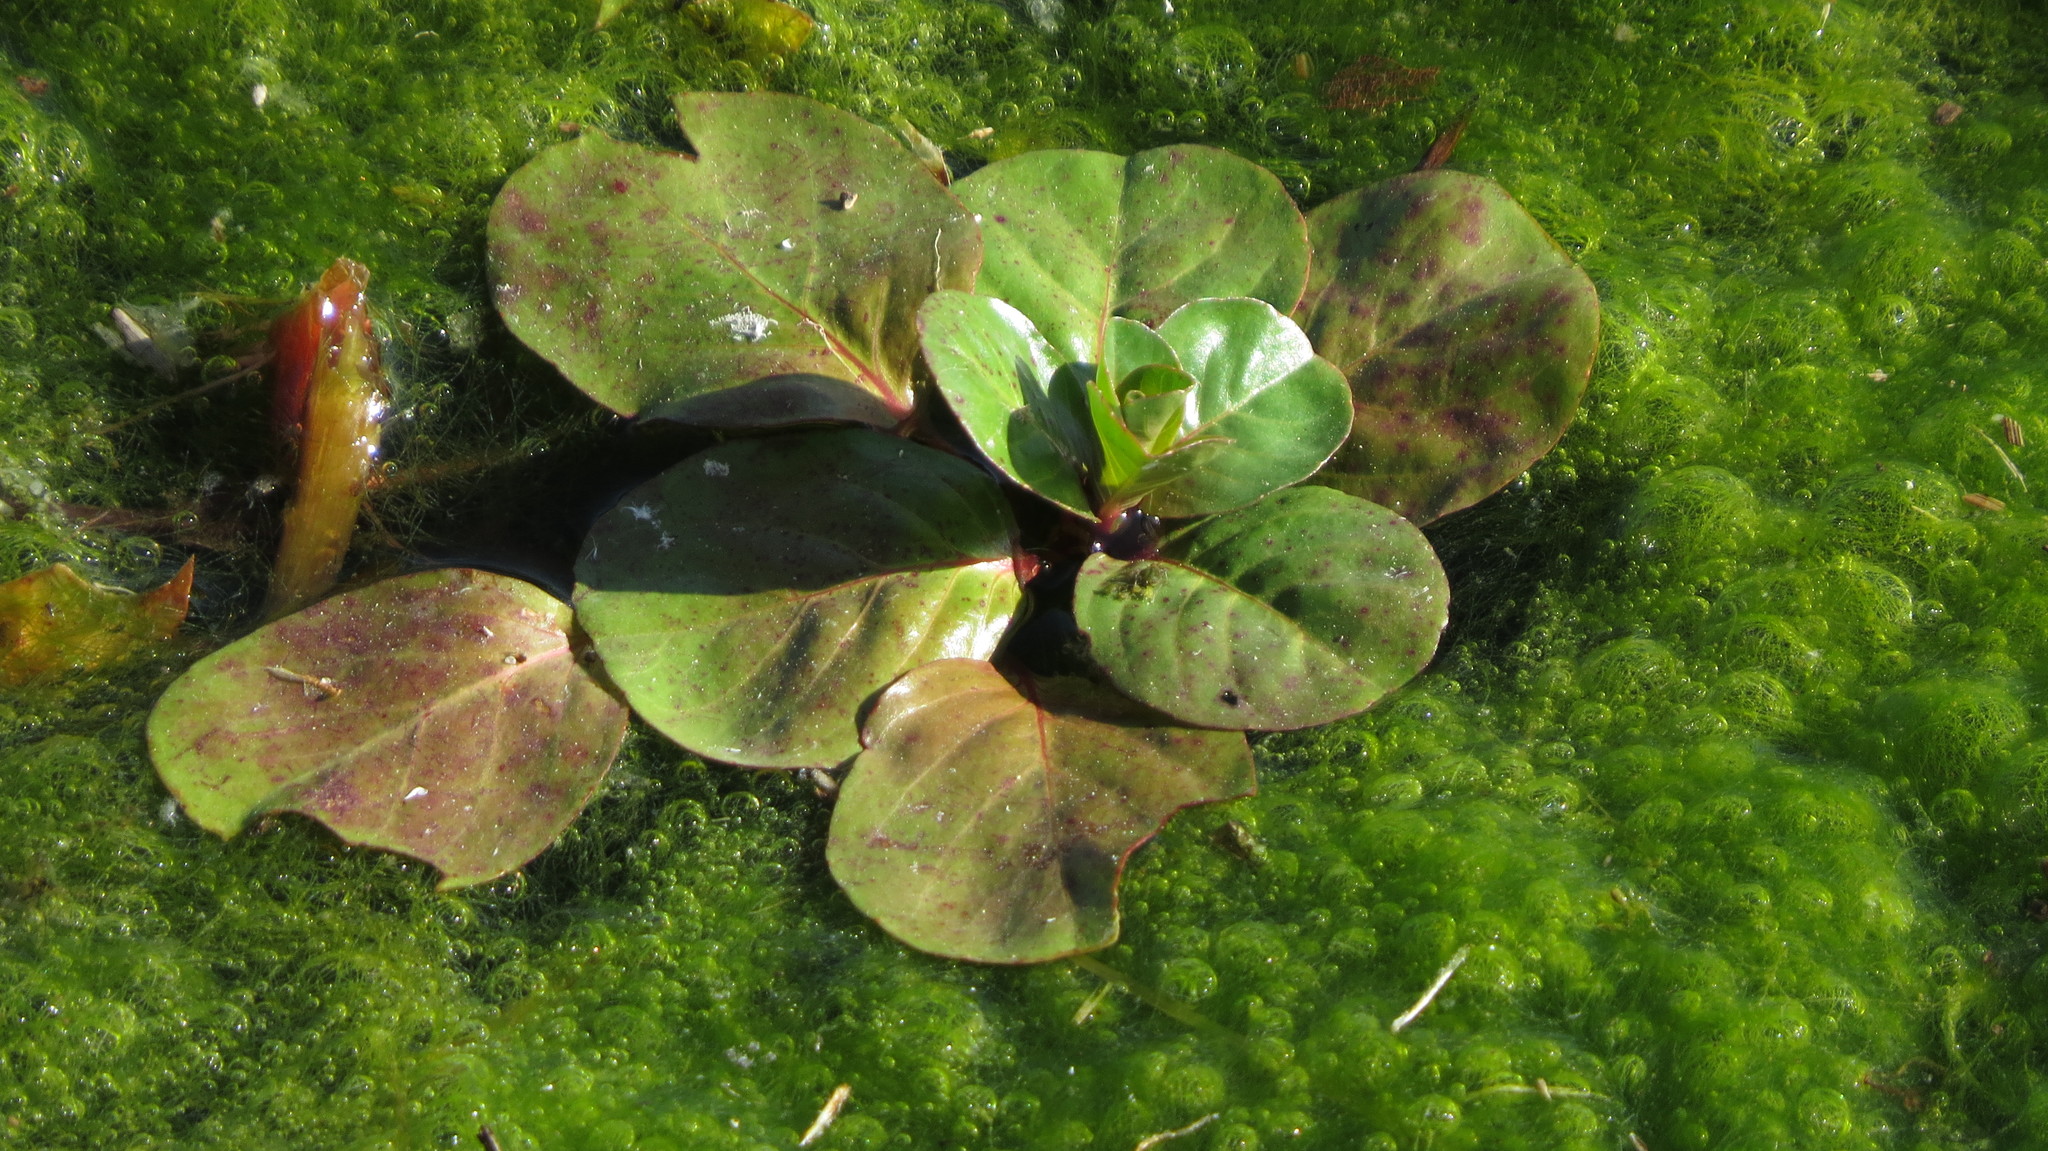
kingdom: Plantae
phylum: Tracheophyta
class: Magnoliopsida
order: Myrtales
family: Onagraceae
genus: Ludwigia
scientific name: Ludwigia peploides
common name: Floating primrose-willow
